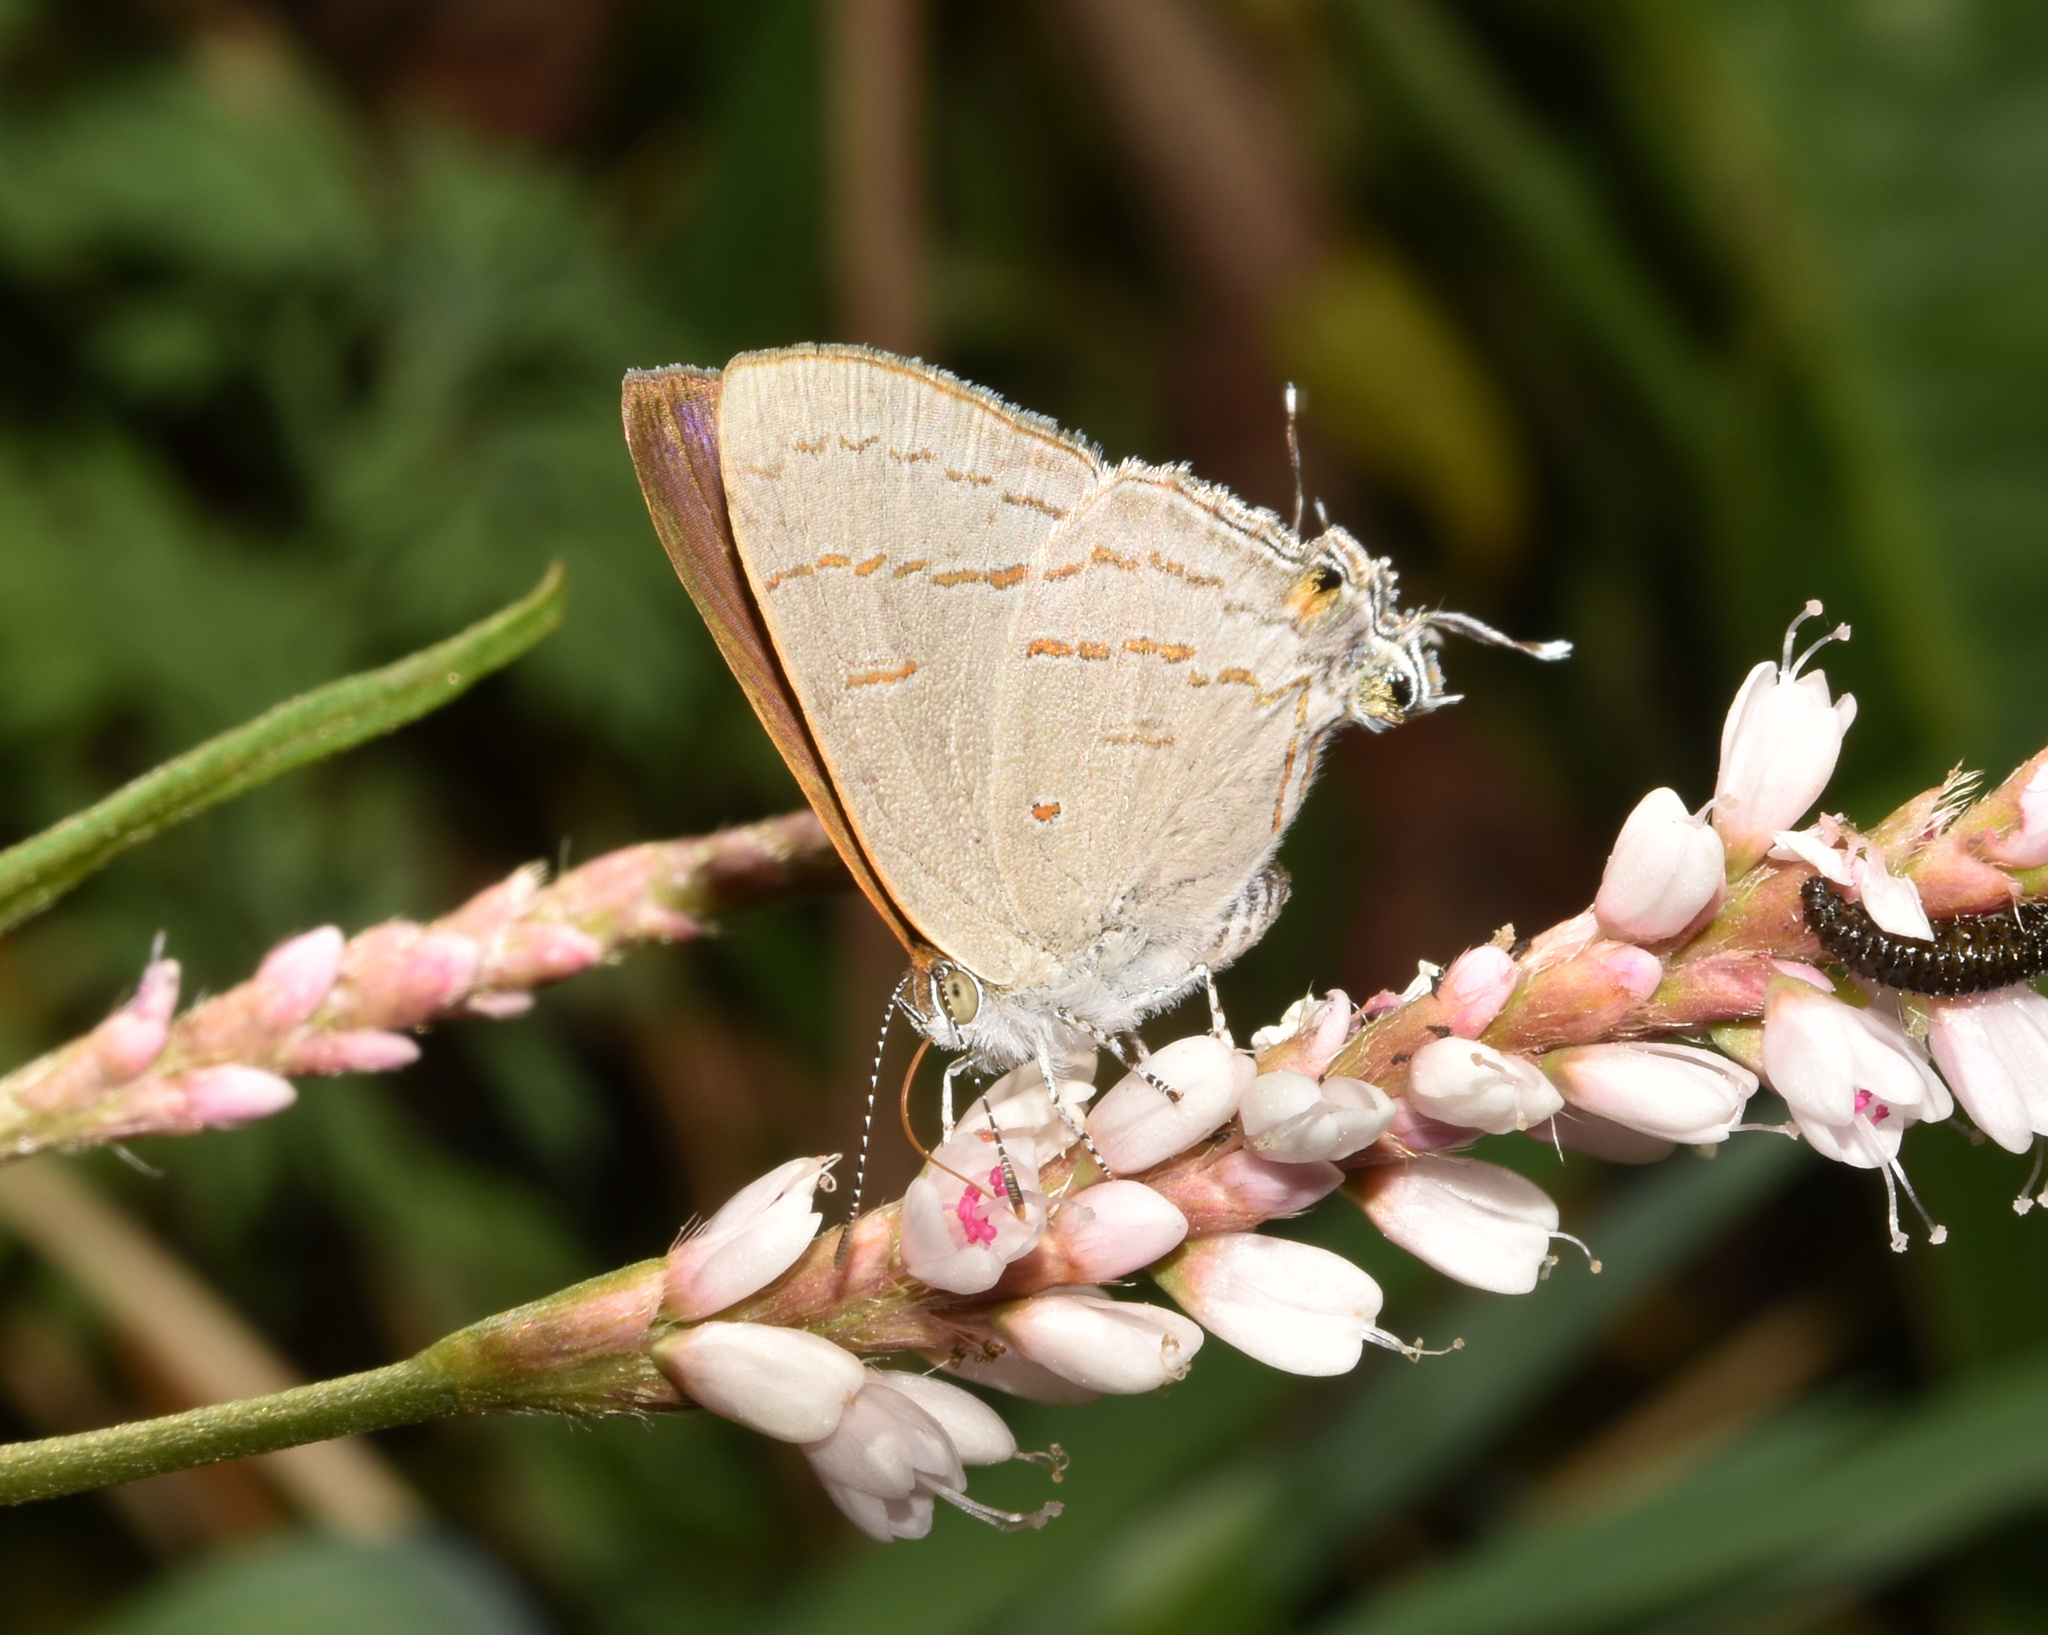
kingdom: Animalia
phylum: Arthropoda
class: Insecta
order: Lepidoptera
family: Lycaenidae
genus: Hypolycaena
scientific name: Hypolycaena philippus
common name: Common hairstreak
